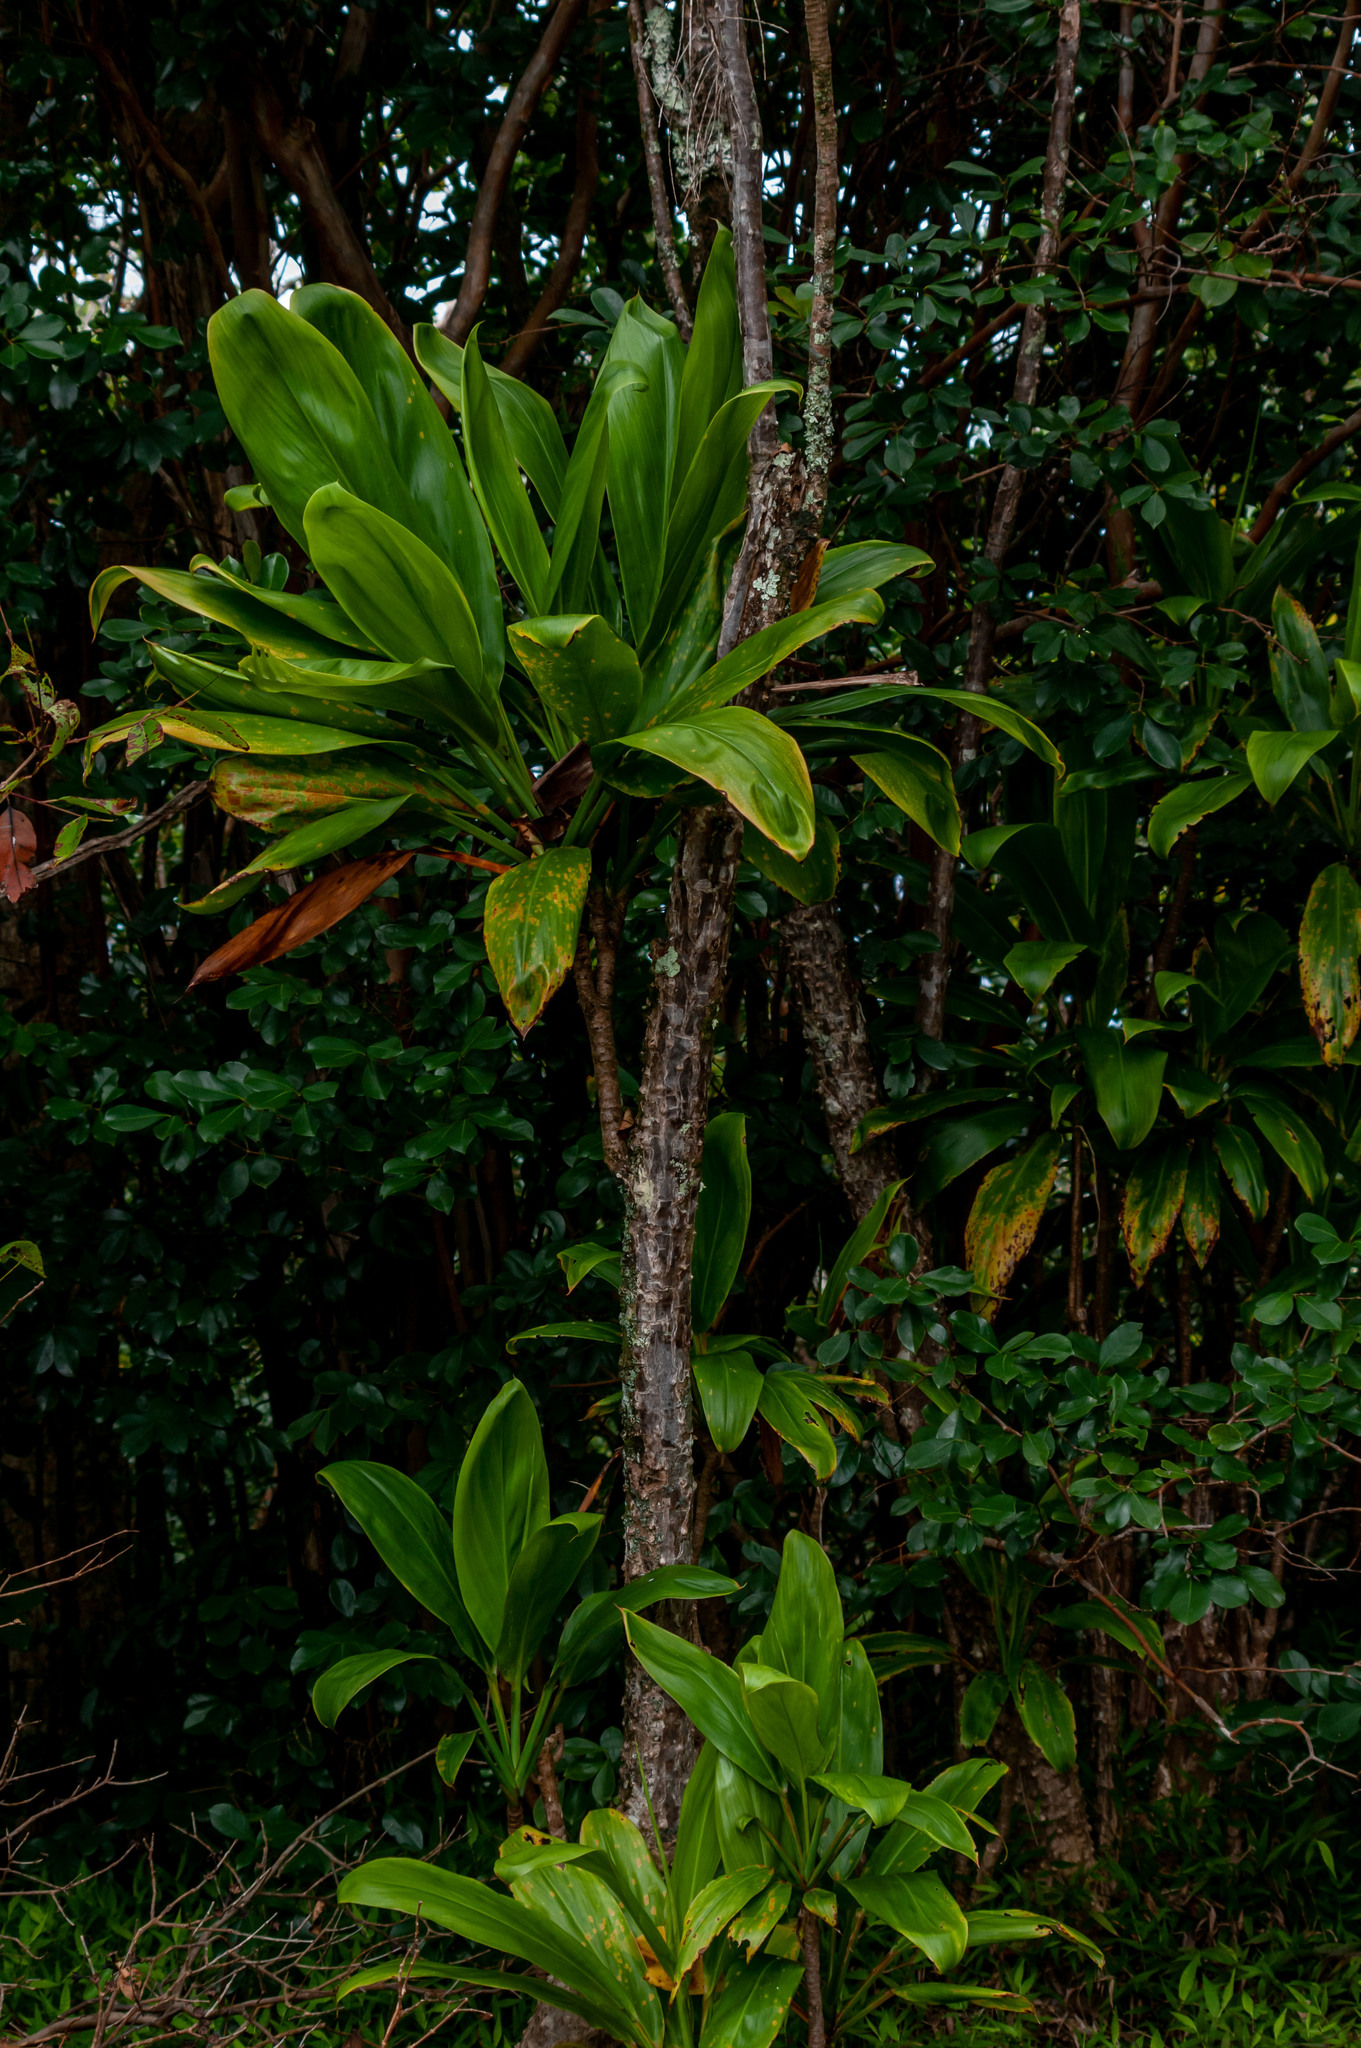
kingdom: Plantae
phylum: Tracheophyta
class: Liliopsida
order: Asparagales
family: Asparagaceae
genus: Cordyline
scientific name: Cordyline fruticosa
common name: Good-luck-plant
